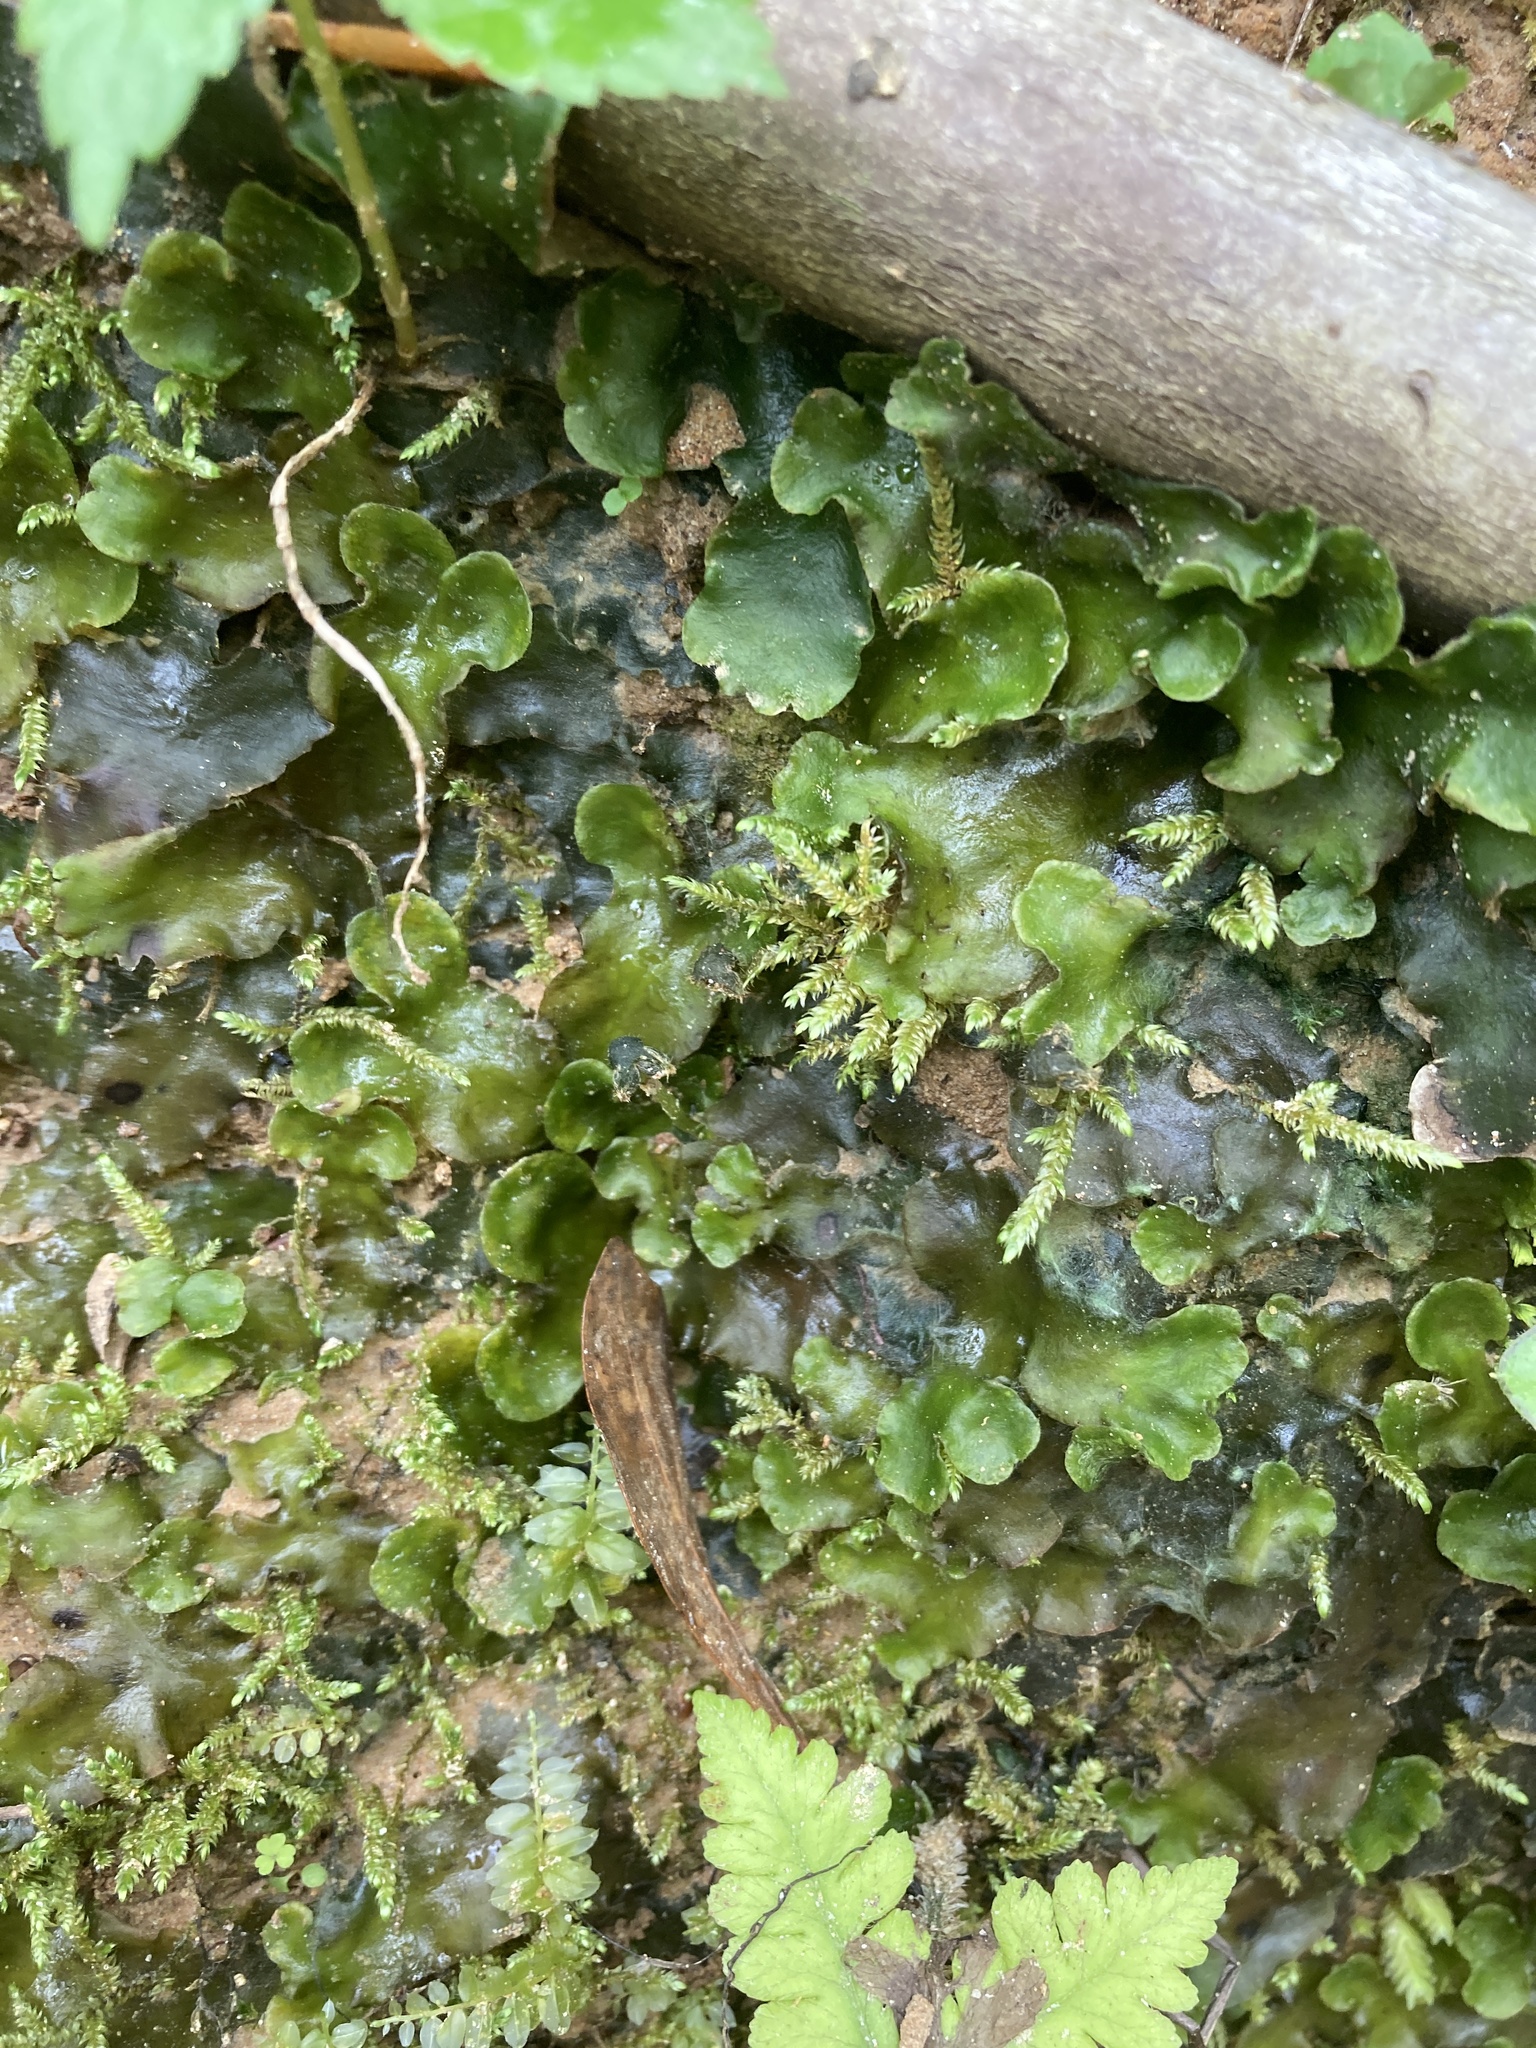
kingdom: Plantae
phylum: Marchantiophyta
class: Marchantiopsida
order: Marchantiales
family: Dumortieraceae
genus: Dumortiera
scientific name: Dumortiera hirsuta
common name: Dumortier's liverwort
